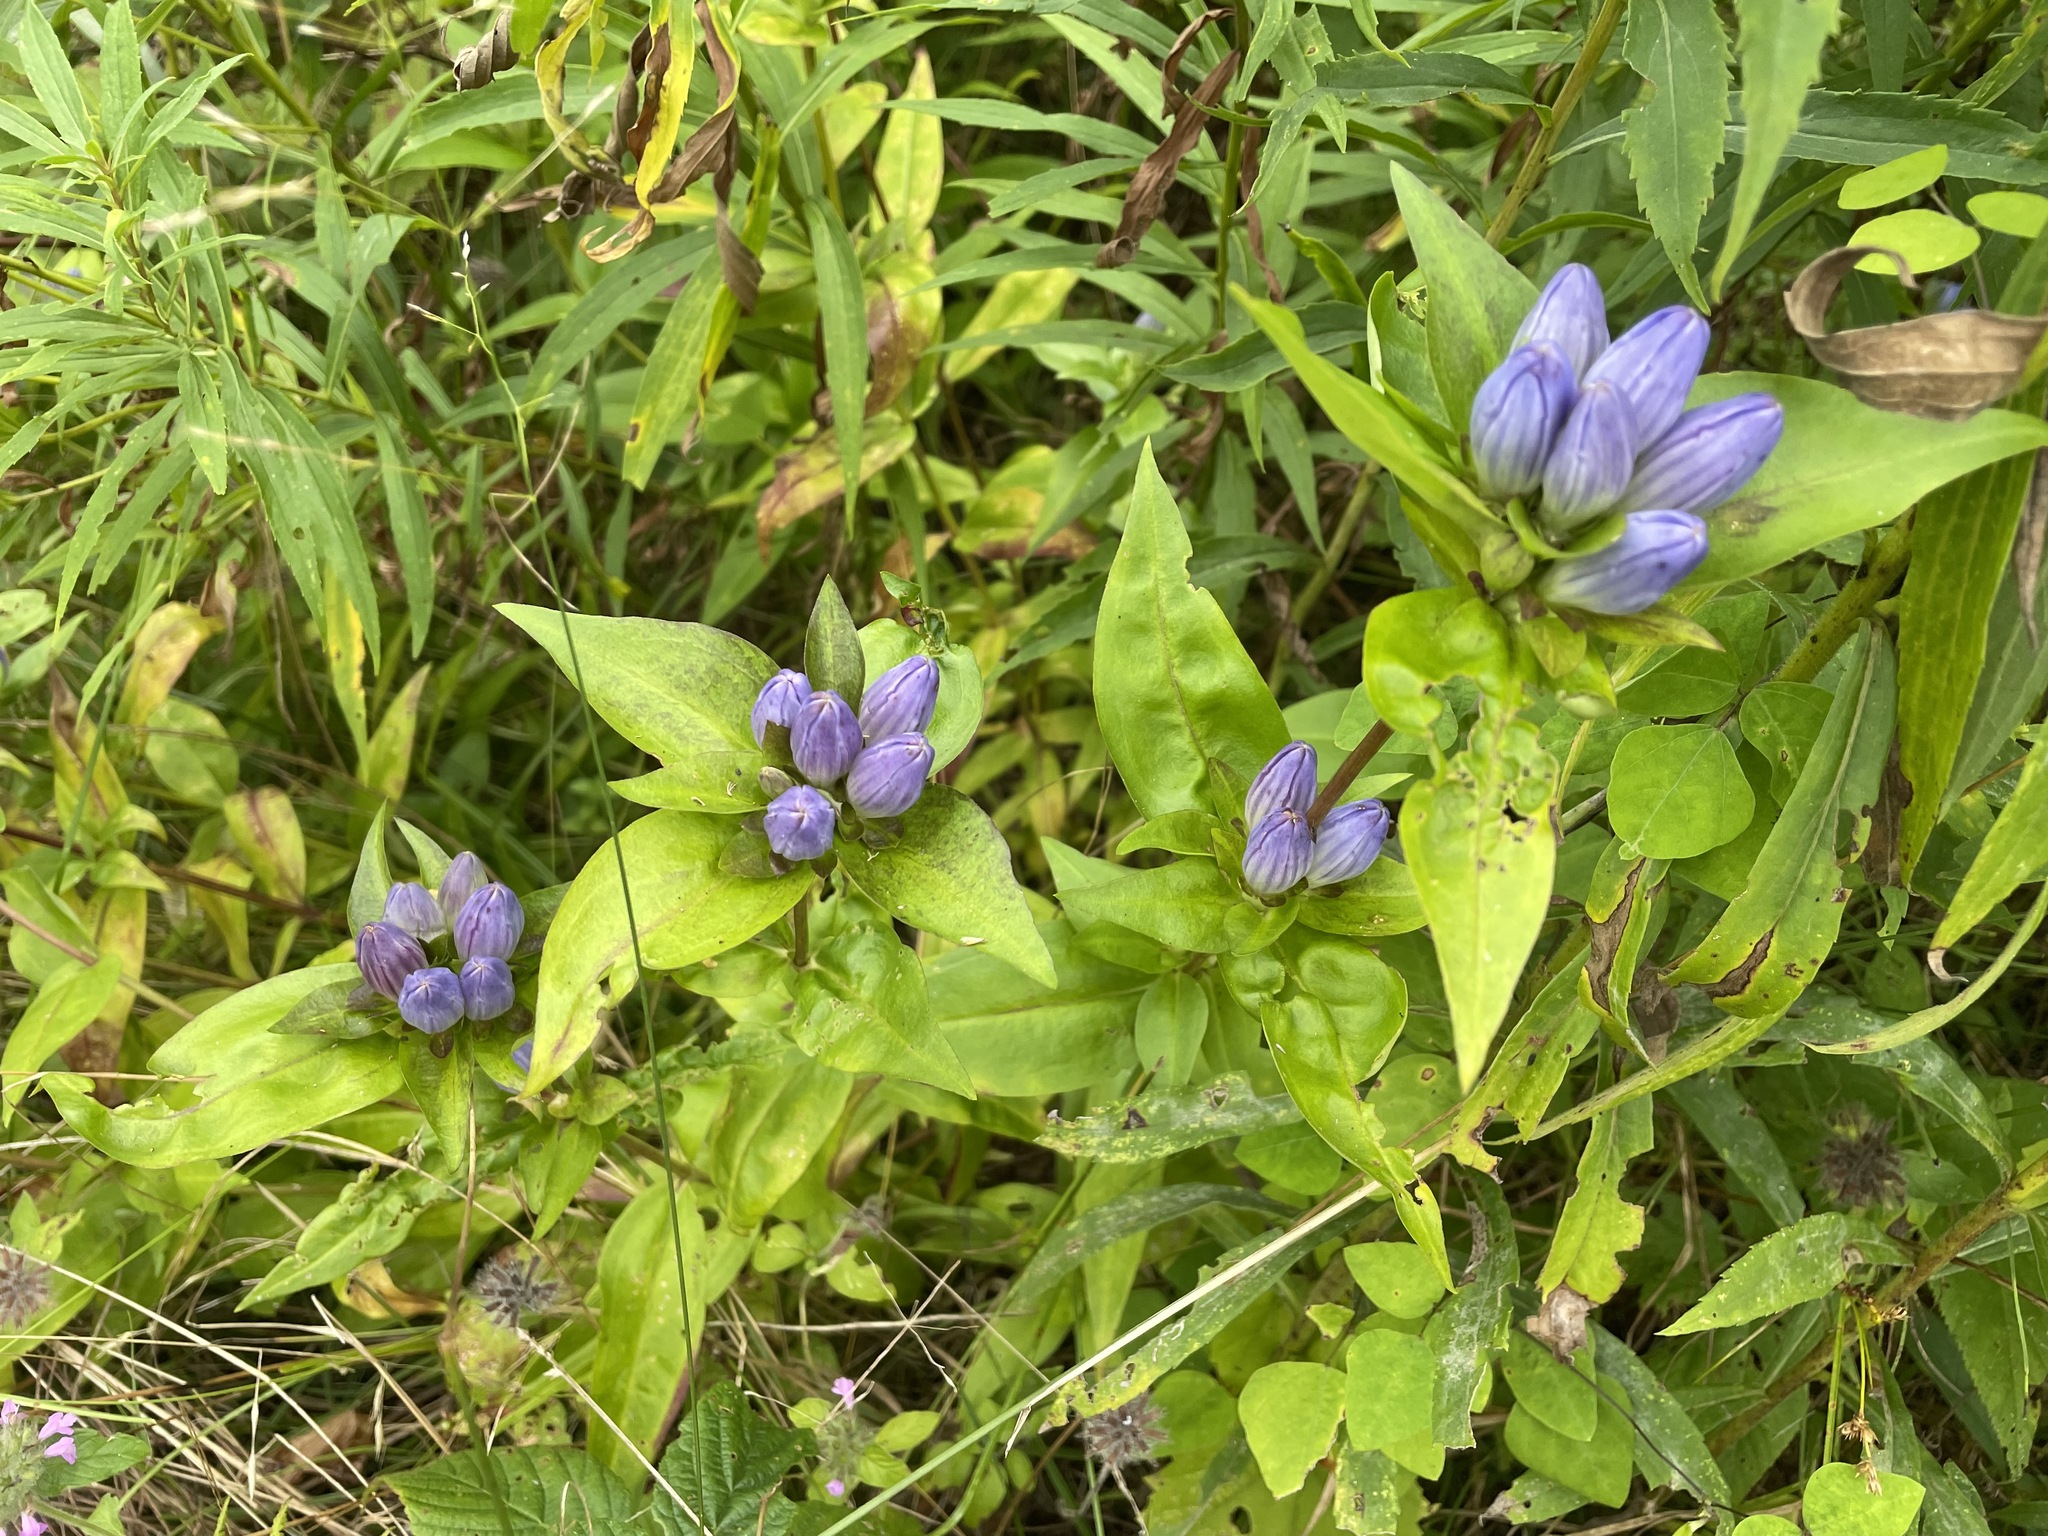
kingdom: Plantae
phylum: Tracheophyta
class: Magnoliopsida
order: Gentianales
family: Gentianaceae
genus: Gentiana
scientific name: Gentiana clausa
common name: Blind gentian
